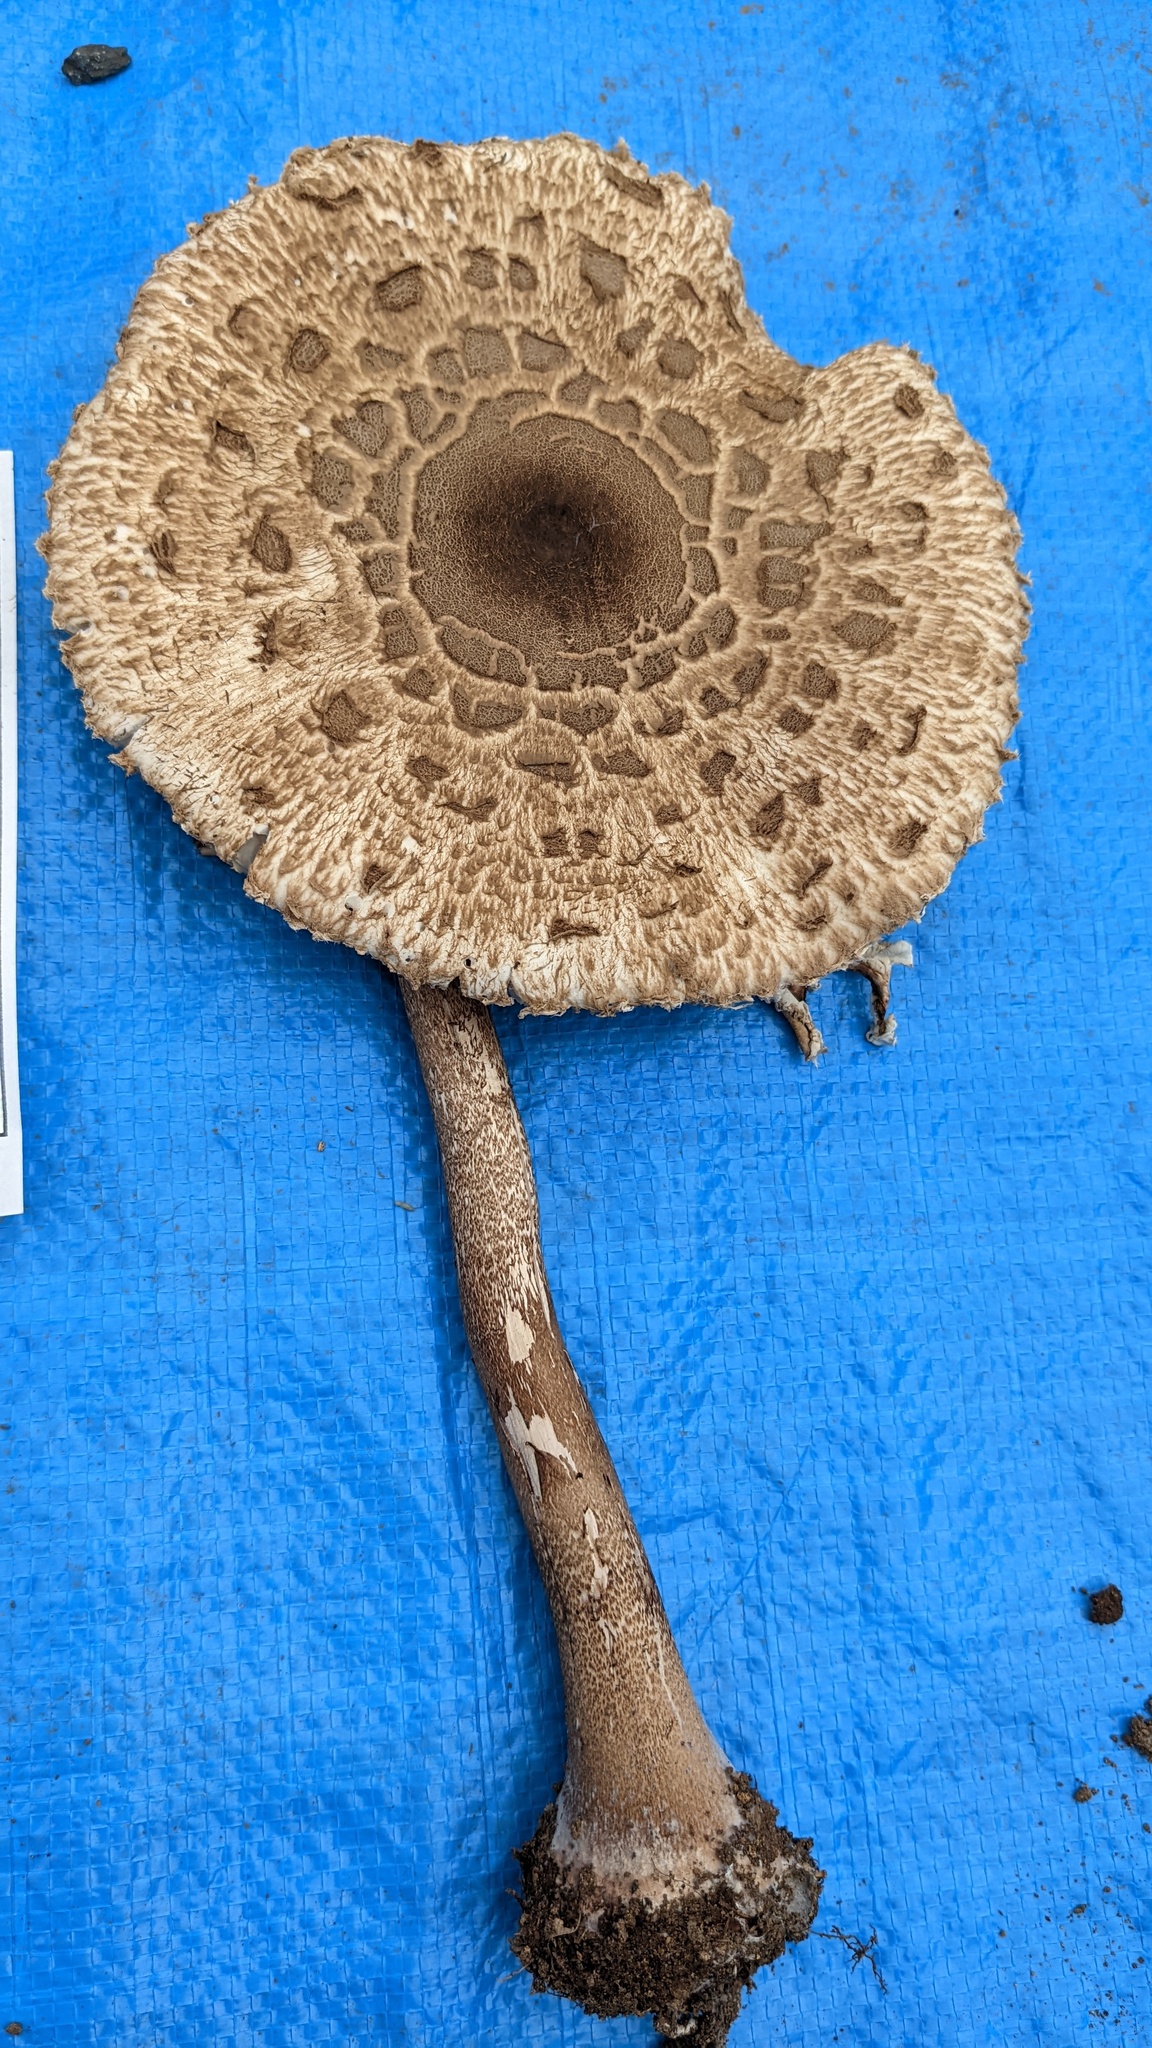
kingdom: Fungi
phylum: Basidiomycota
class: Agaricomycetes
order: Agaricales
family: Agaricaceae
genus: Macrolepiota
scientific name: Macrolepiota procera
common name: Parasol
